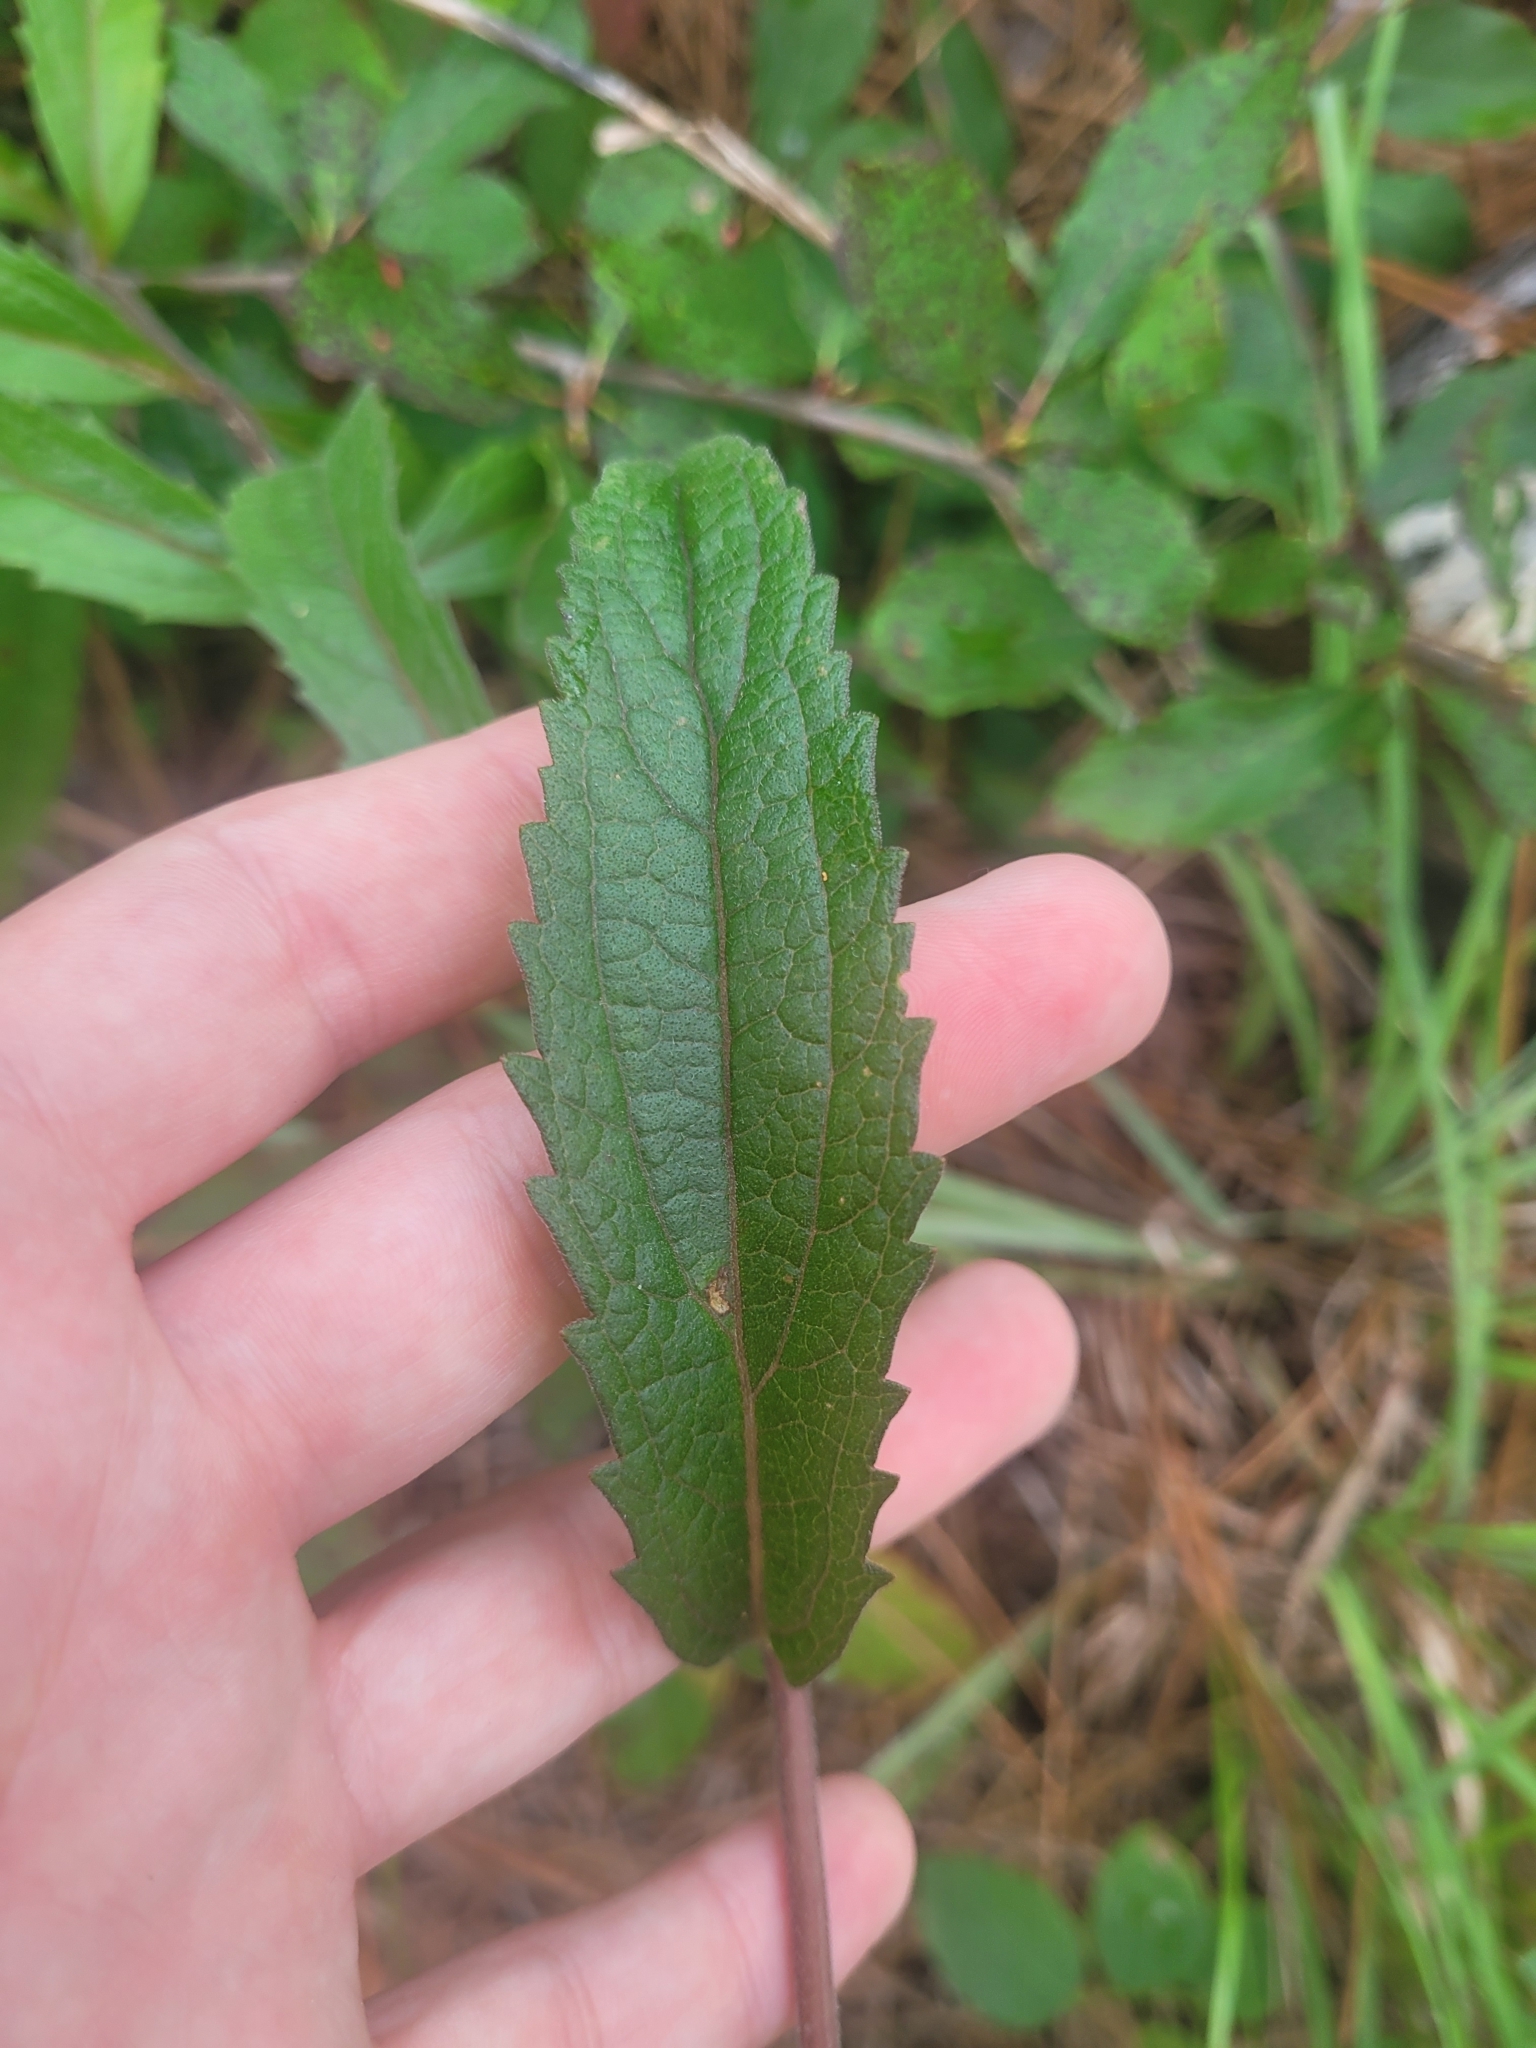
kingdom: Plantae
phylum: Tracheophyta
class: Magnoliopsida
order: Asterales
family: Asteraceae
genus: Eupatorium
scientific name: Eupatorium album
